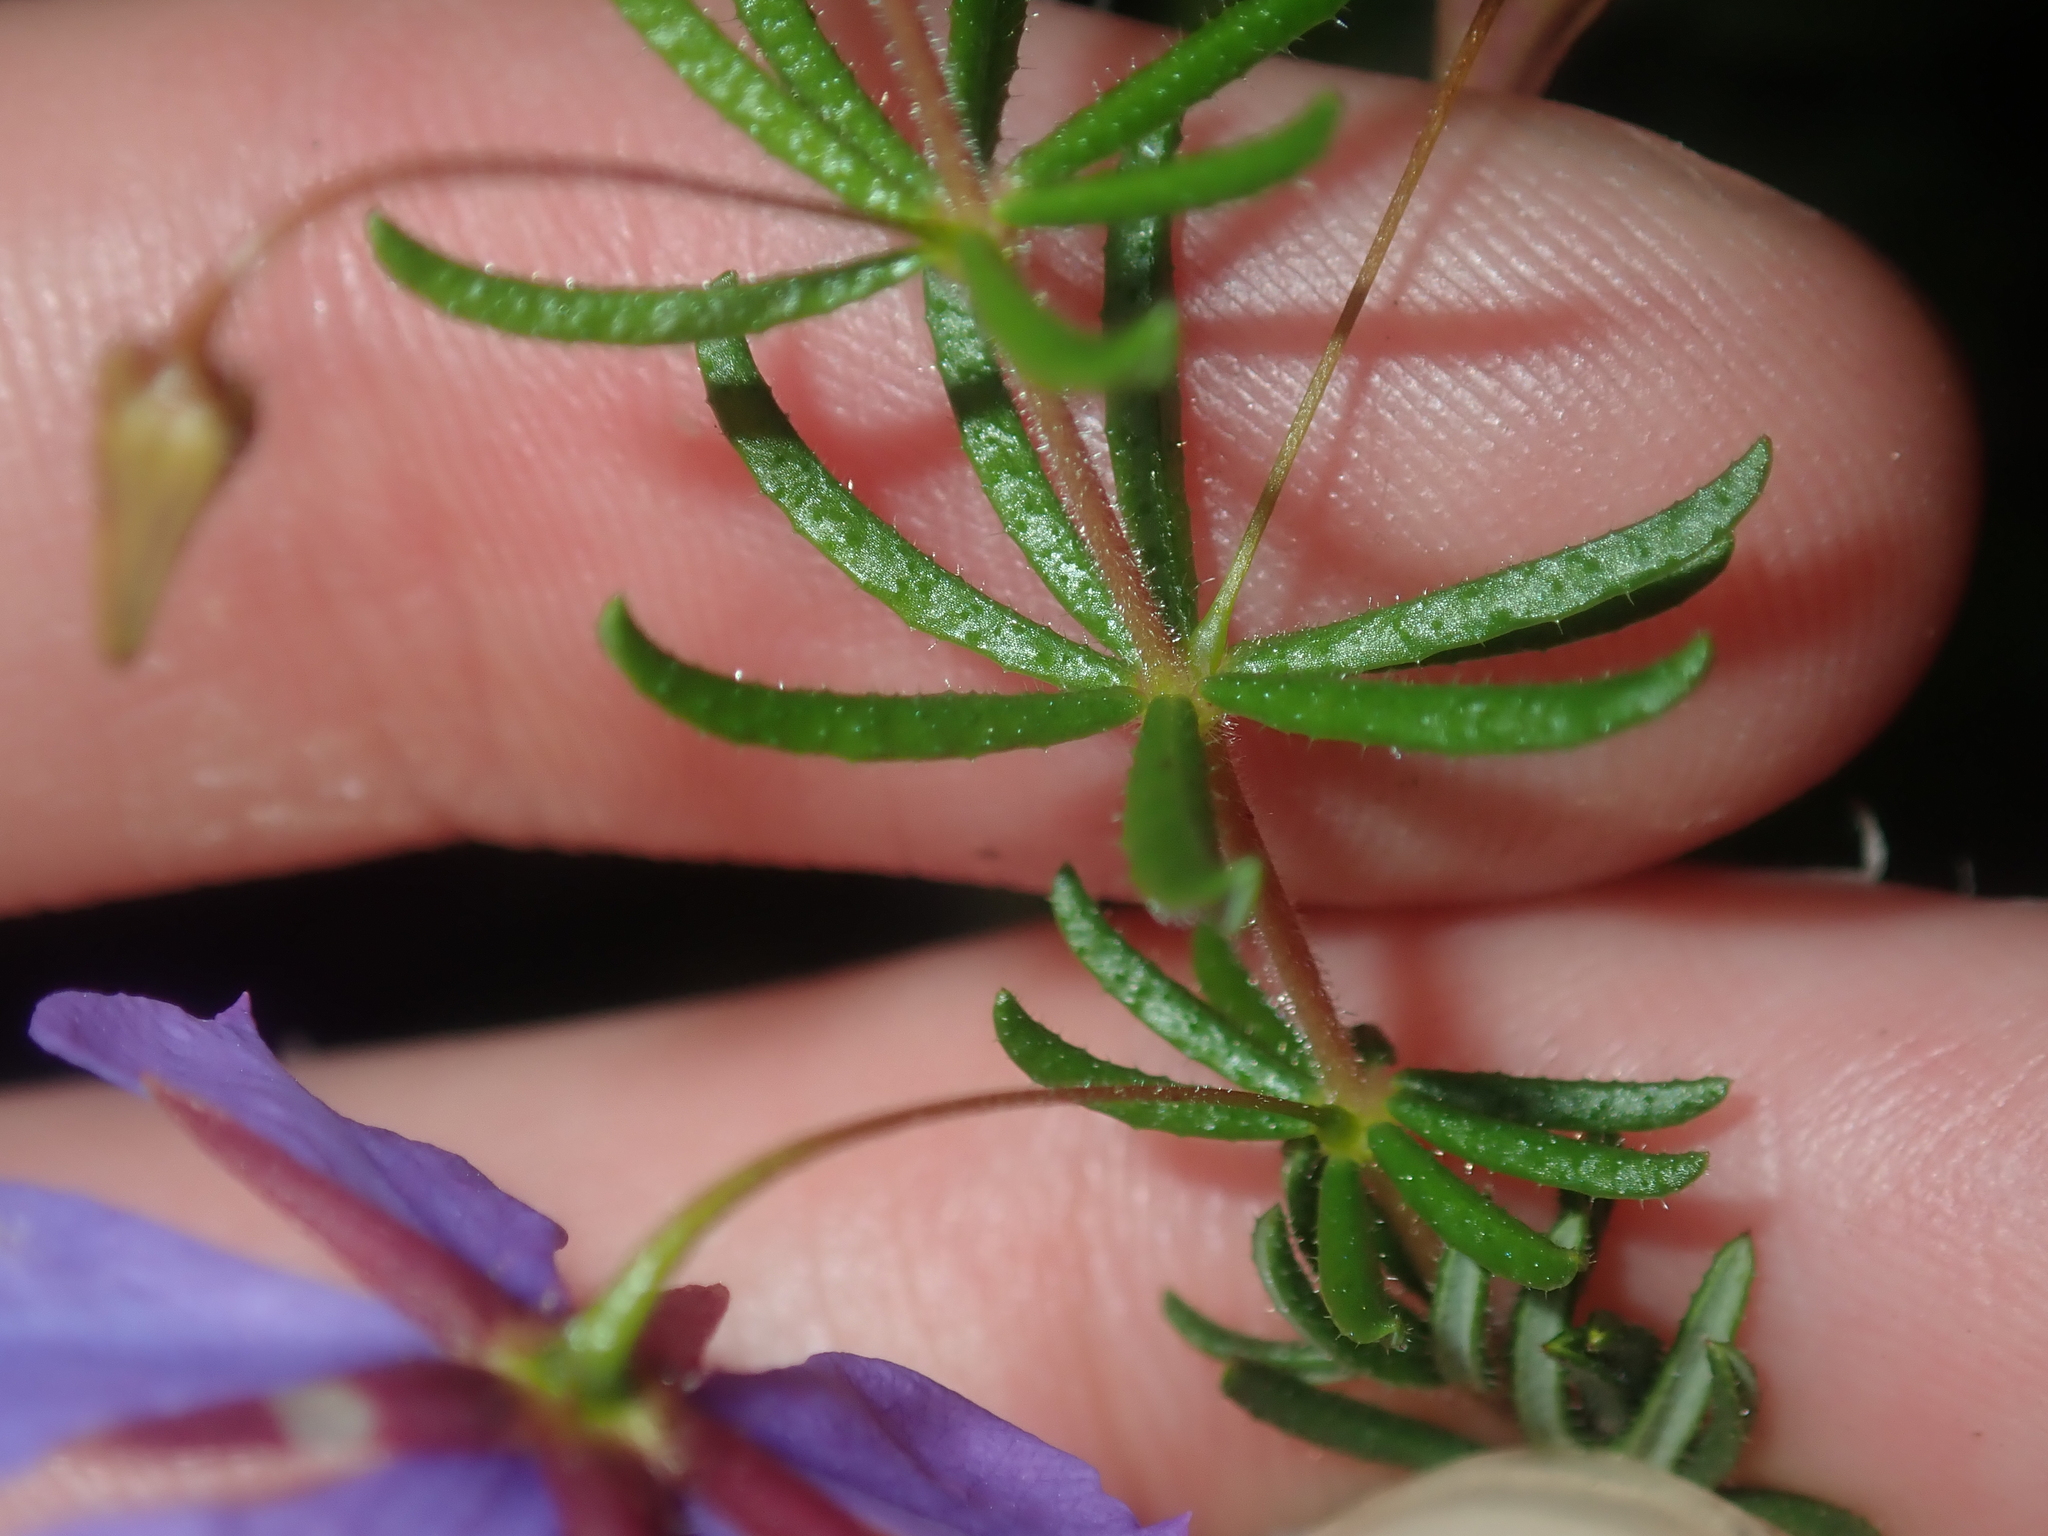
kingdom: Plantae
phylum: Tracheophyta
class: Magnoliopsida
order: Oxalidales
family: Elaeocarpaceae
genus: Platytheca
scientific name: Platytheca galioides
